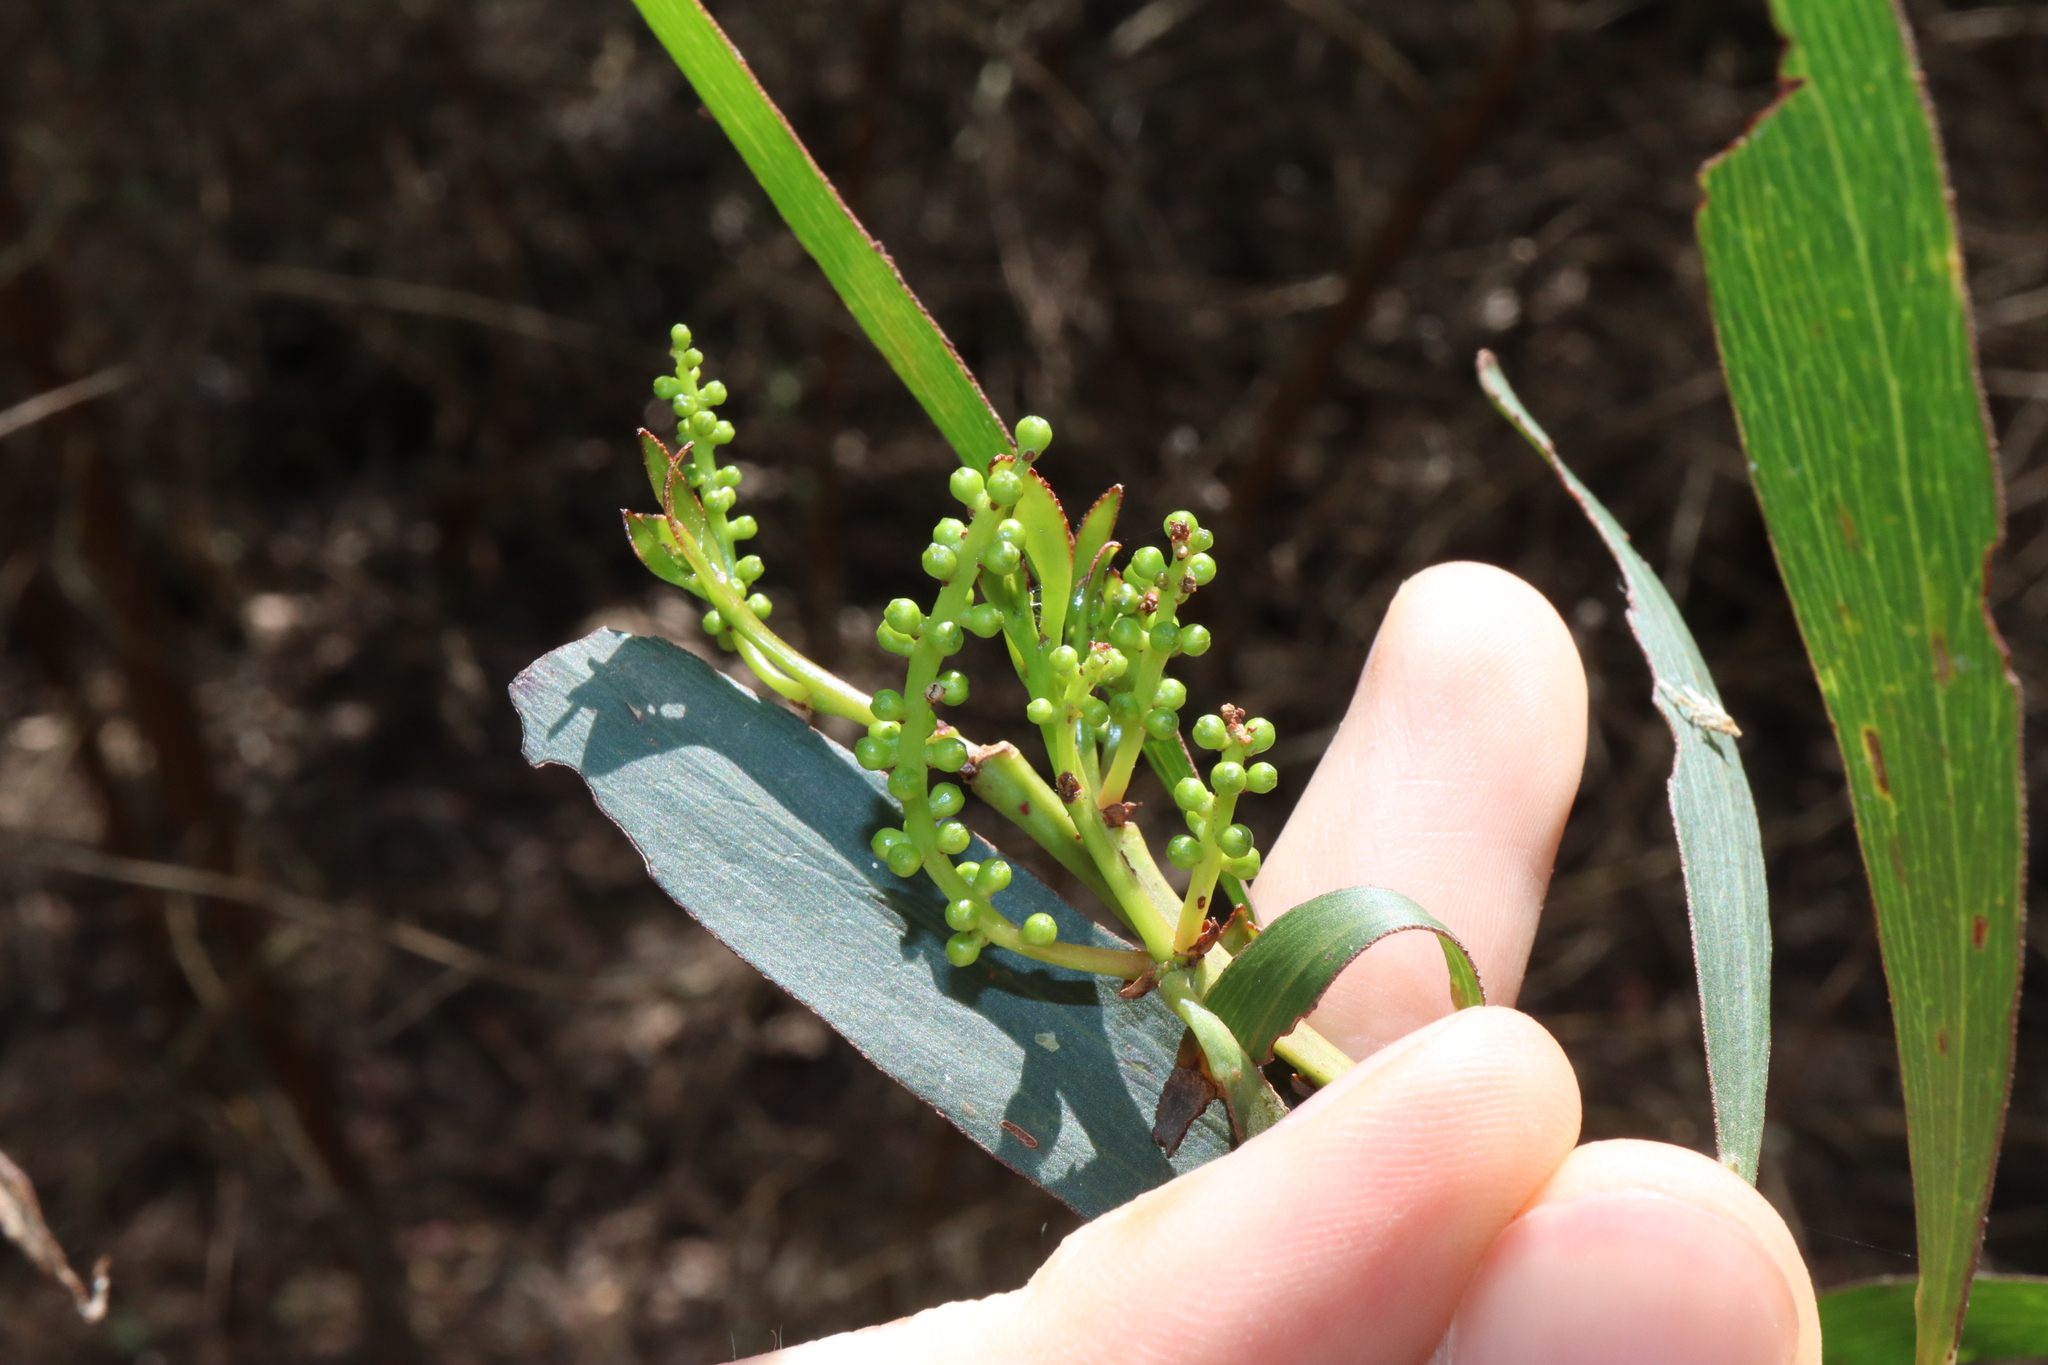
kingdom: Plantae
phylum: Tracheophyta
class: Magnoliopsida
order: Fabales
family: Fabaceae
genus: Acacia
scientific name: Acacia obtusifolia
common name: Stiff-leaf wattle
